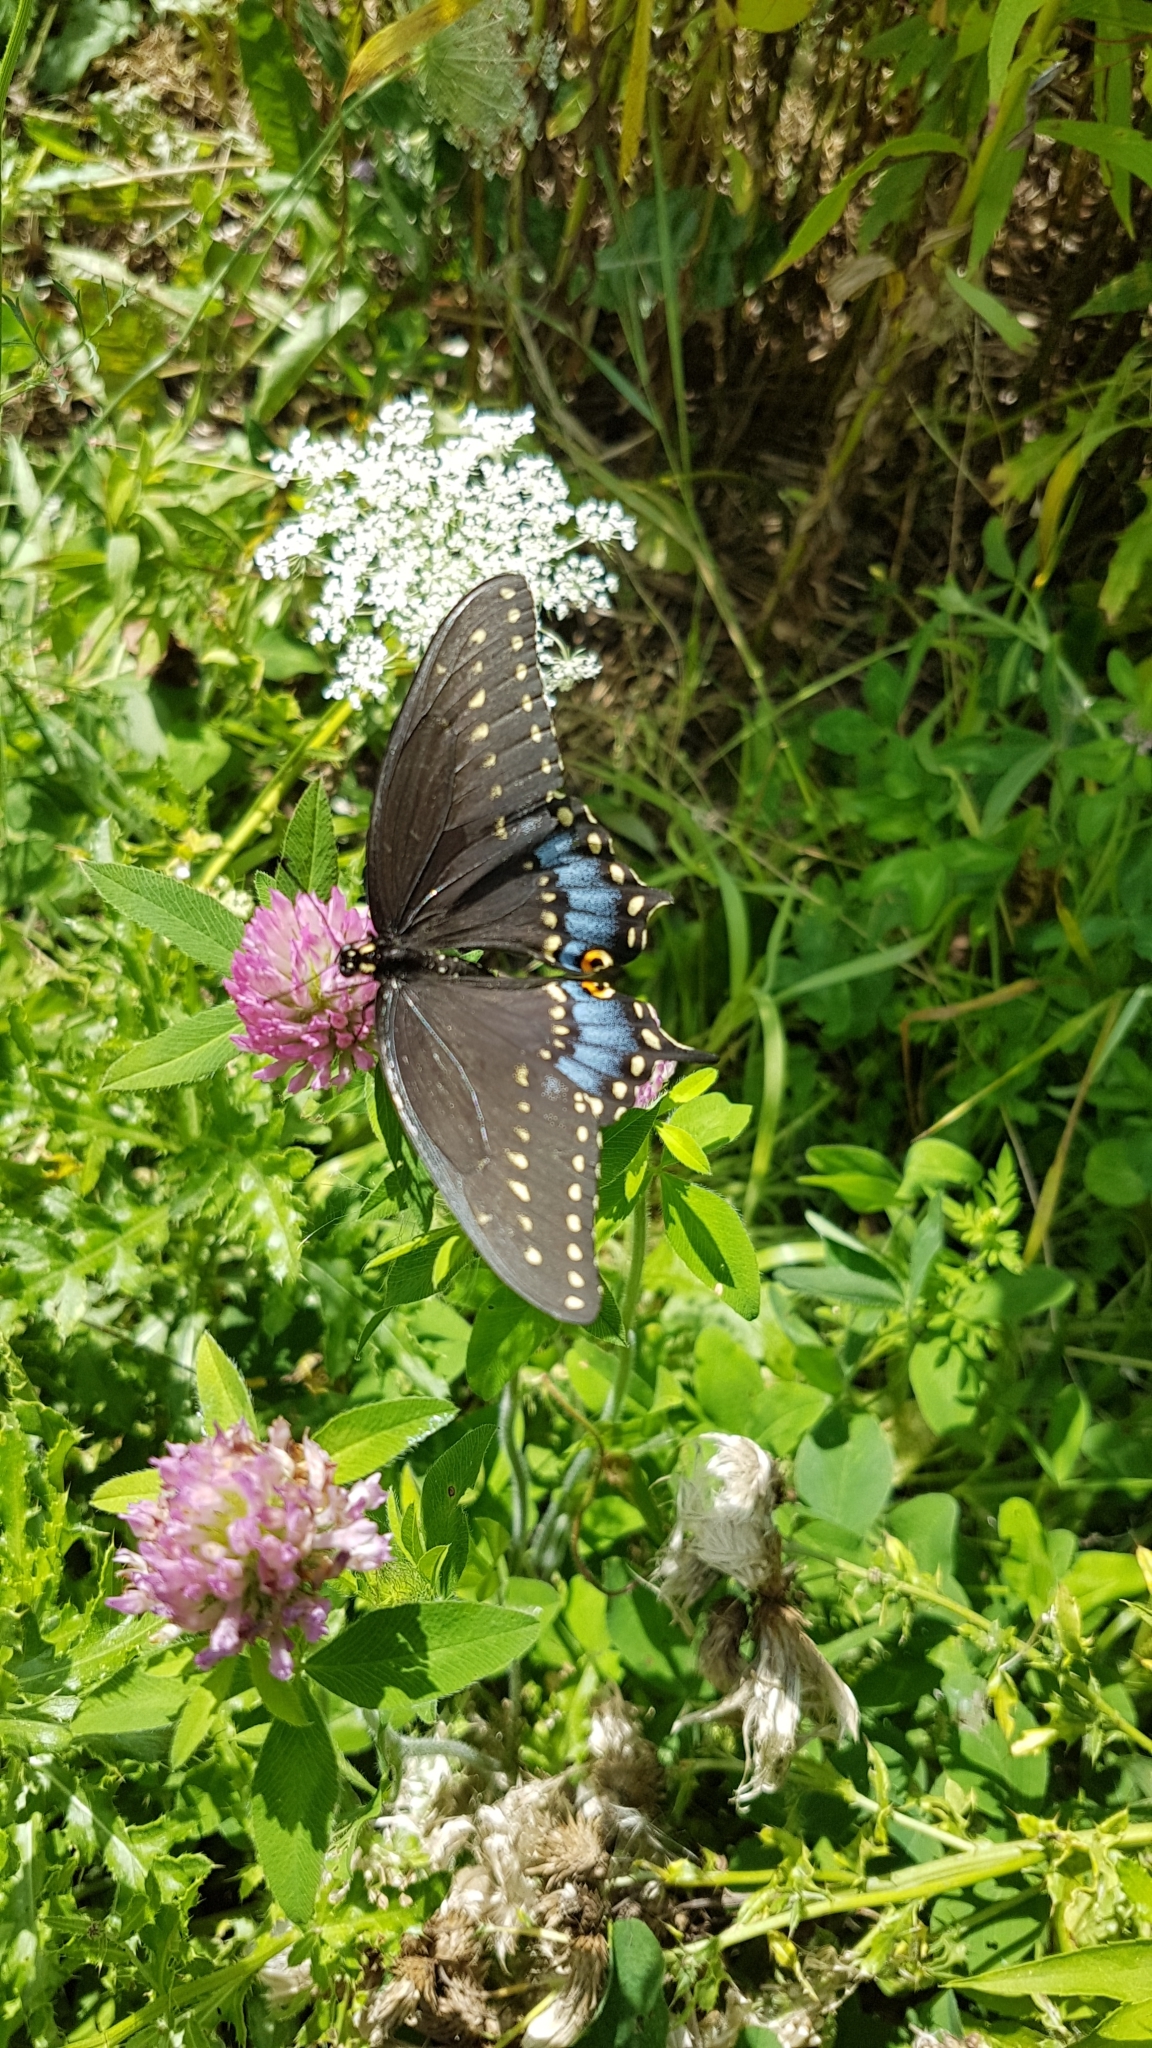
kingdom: Animalia
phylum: Arthropoda
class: Insecta
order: Lepidoptera
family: Papilionidae
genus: Papilio
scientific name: Papilio polyxenes
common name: Black swallowtail
